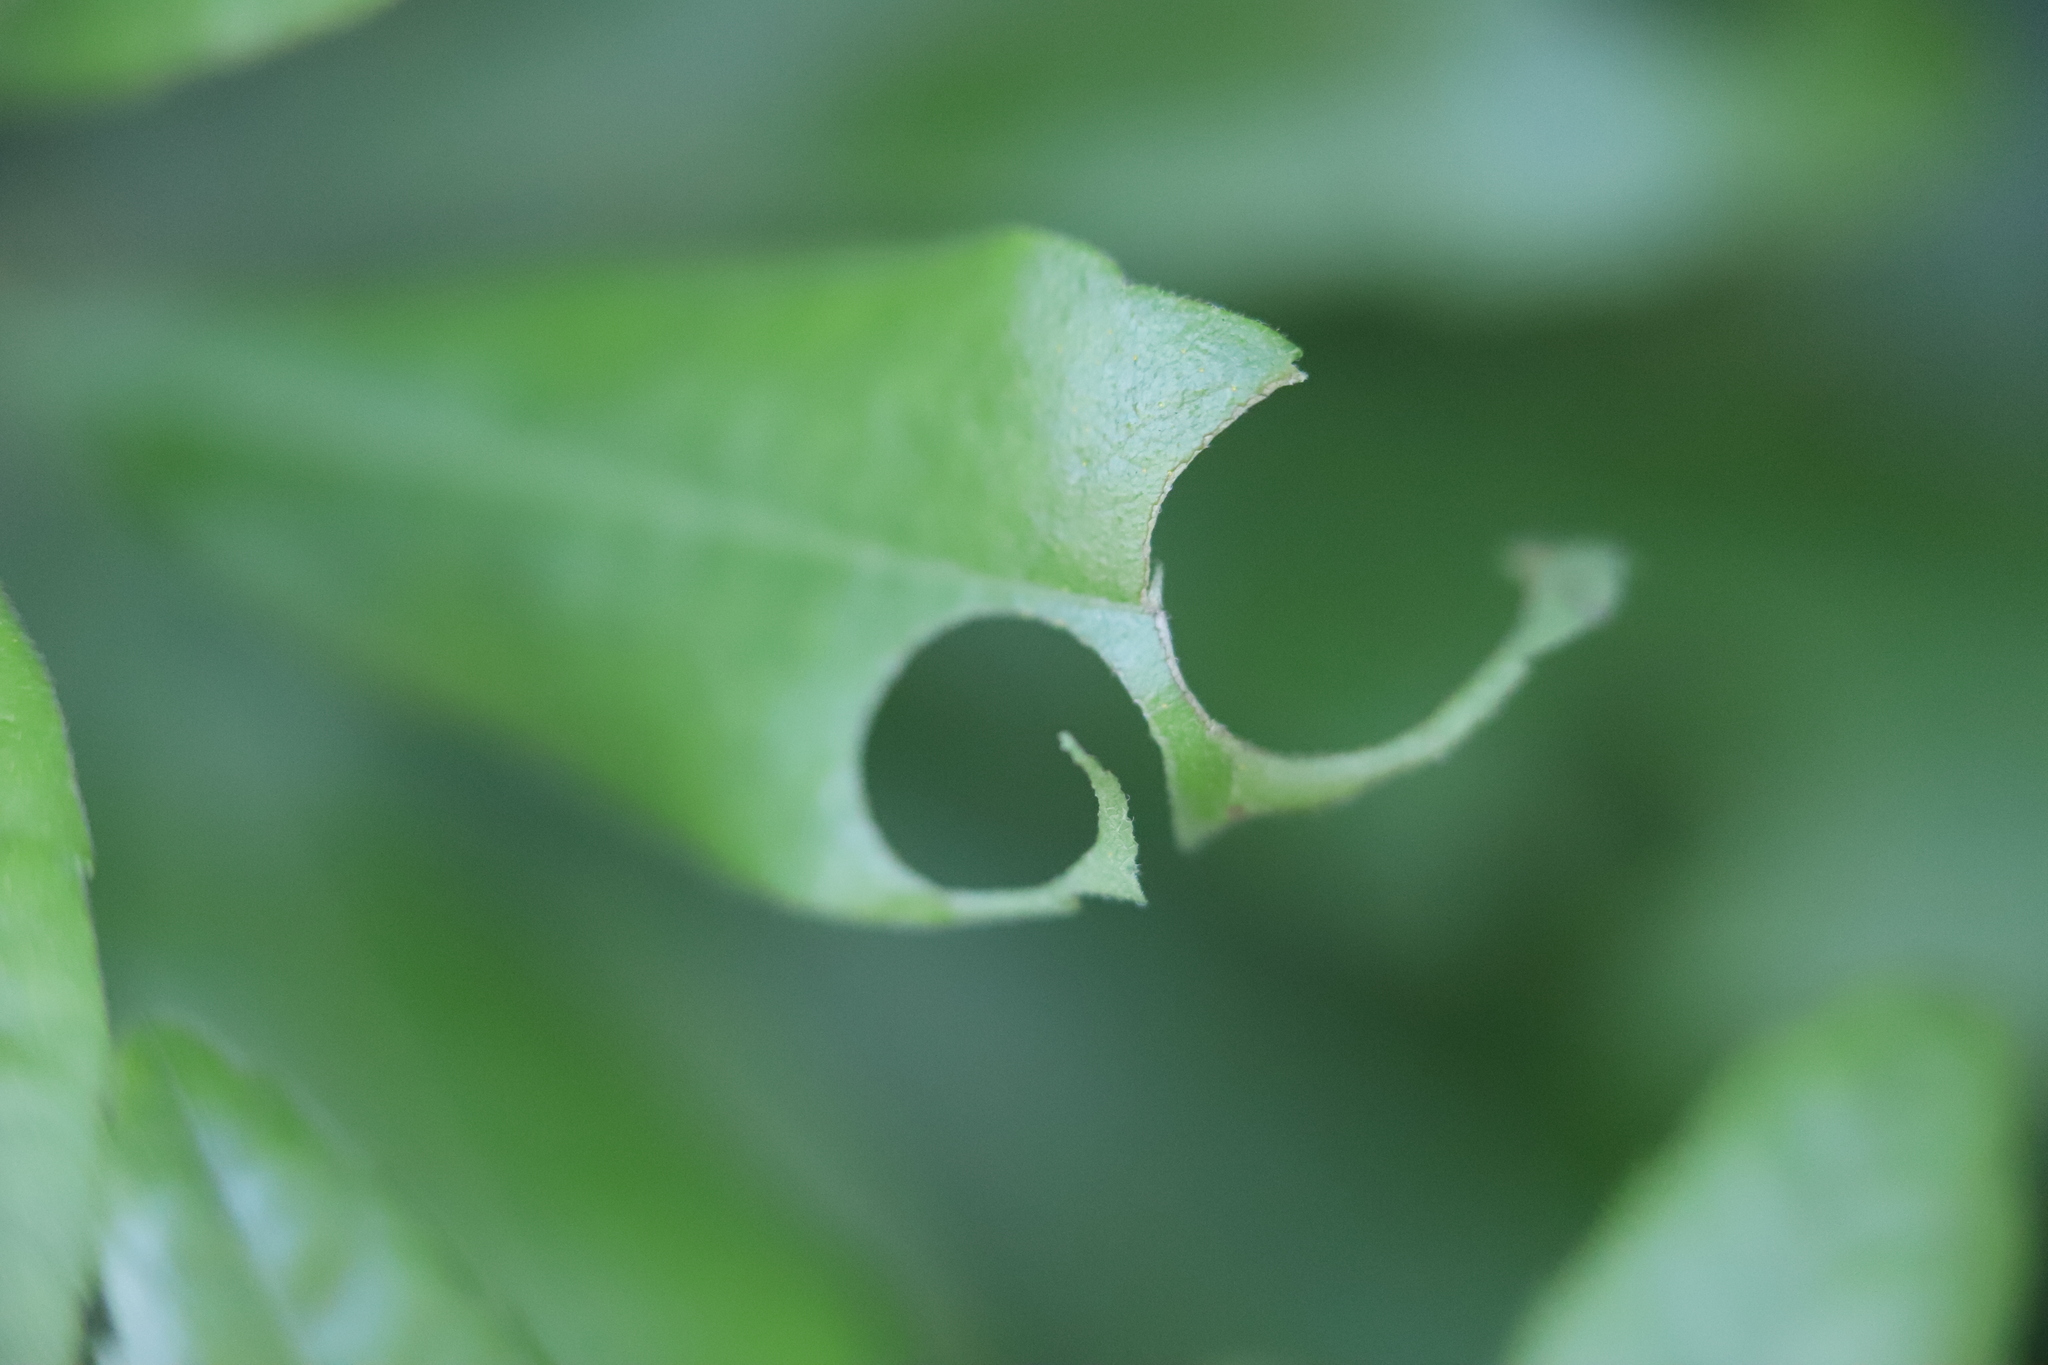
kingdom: Animalia
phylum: Arthropoda
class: Insecta
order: Hymenoptera
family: Megachilidae
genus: Megachile
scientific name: Megachile
